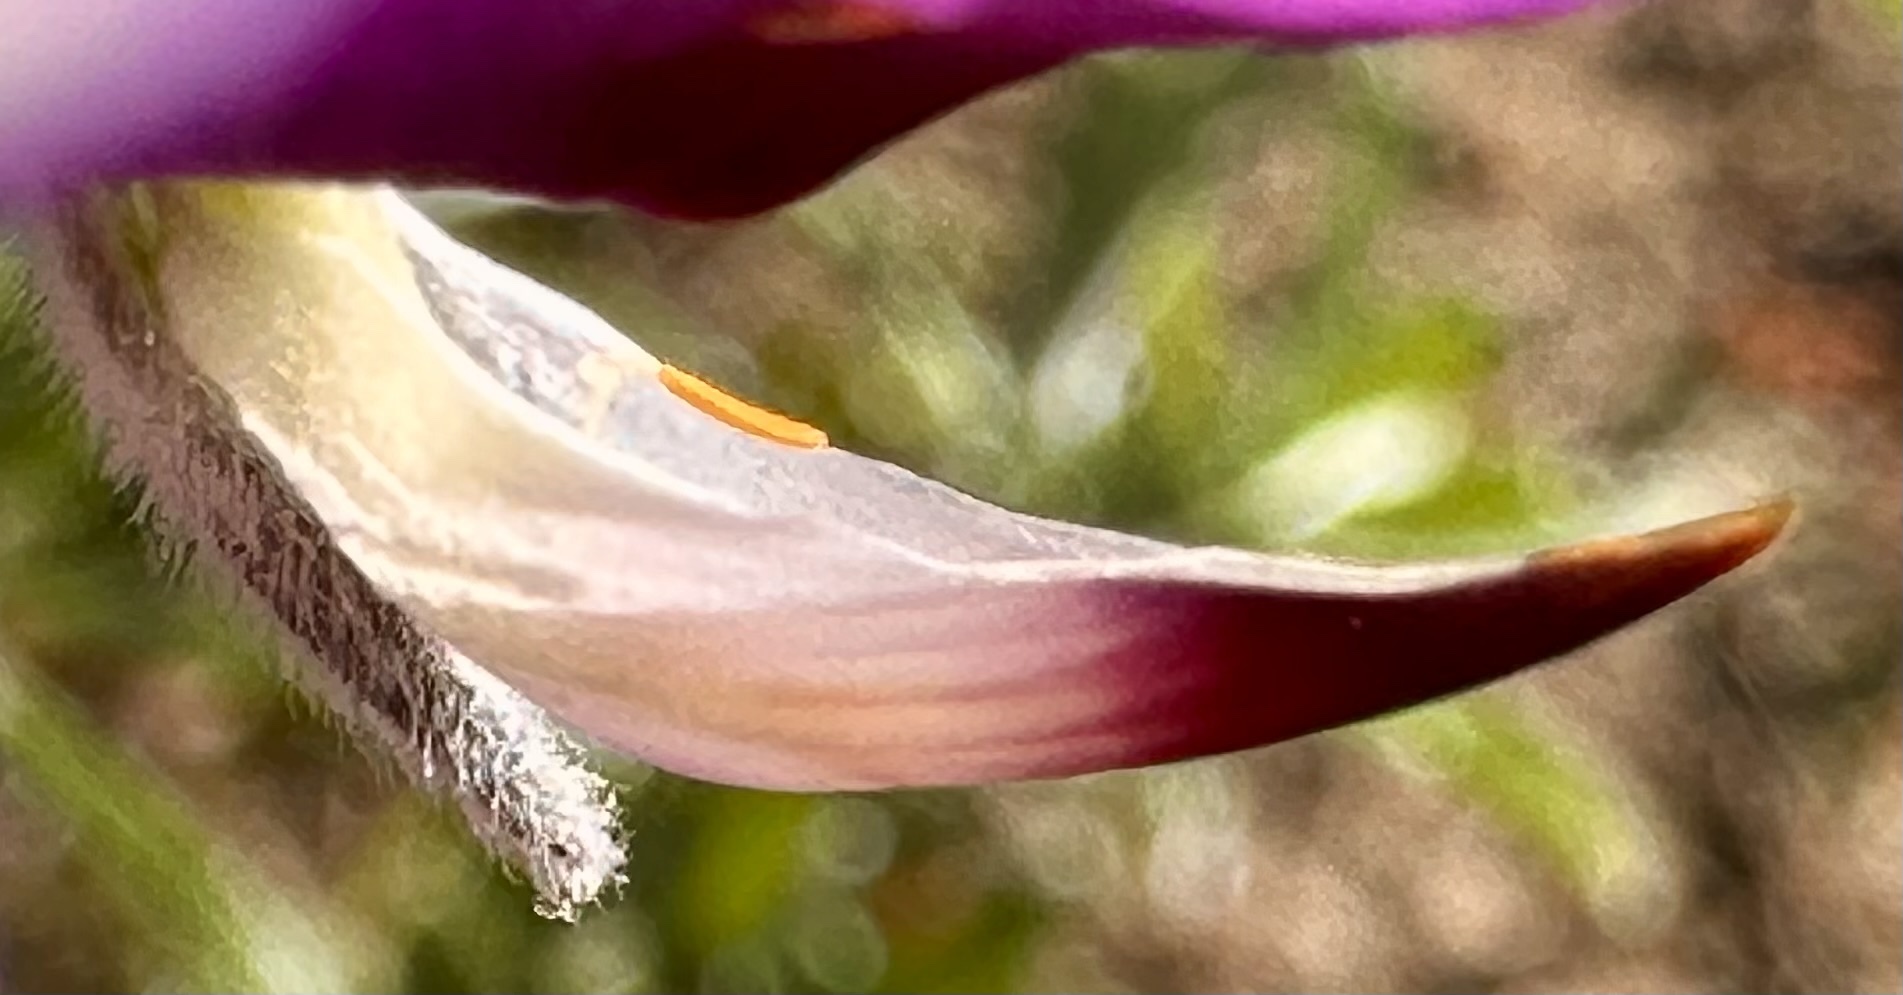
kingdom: Plantae
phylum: Tracheophyta
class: Magnoliopsida
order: Fabales
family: Fabaceae
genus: Lupinus
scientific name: Lupinus chamissonis
